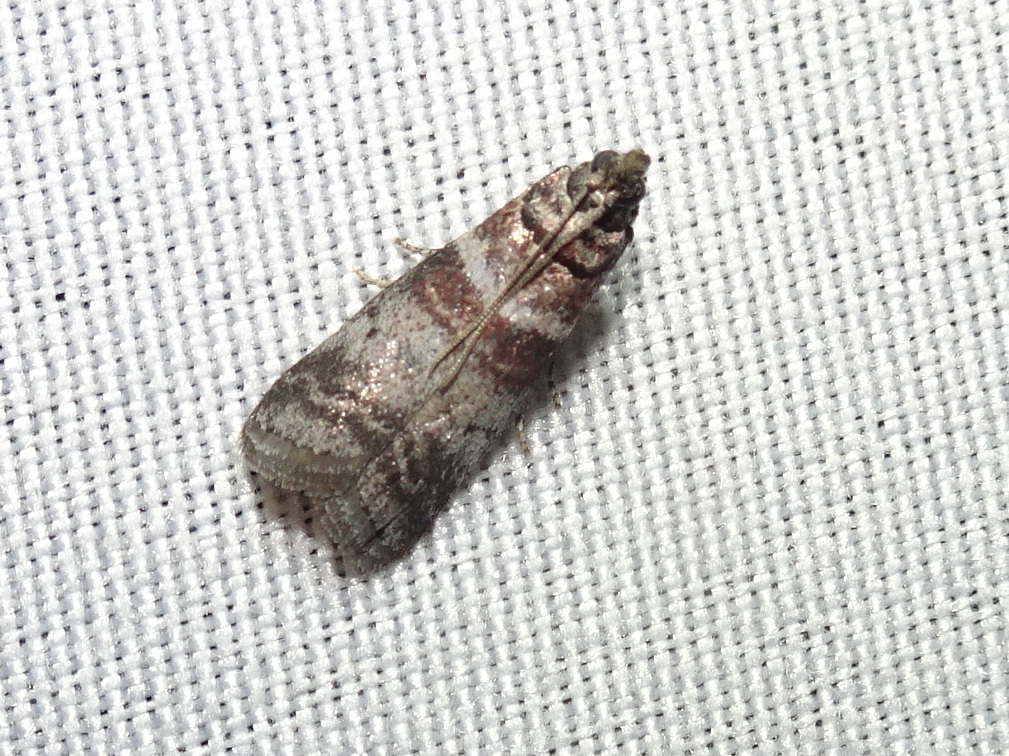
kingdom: Animalia
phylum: Arthropoda
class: Insecta
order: Lepidoptera
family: Pyralidae
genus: Sciota
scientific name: Sciota uvinella
